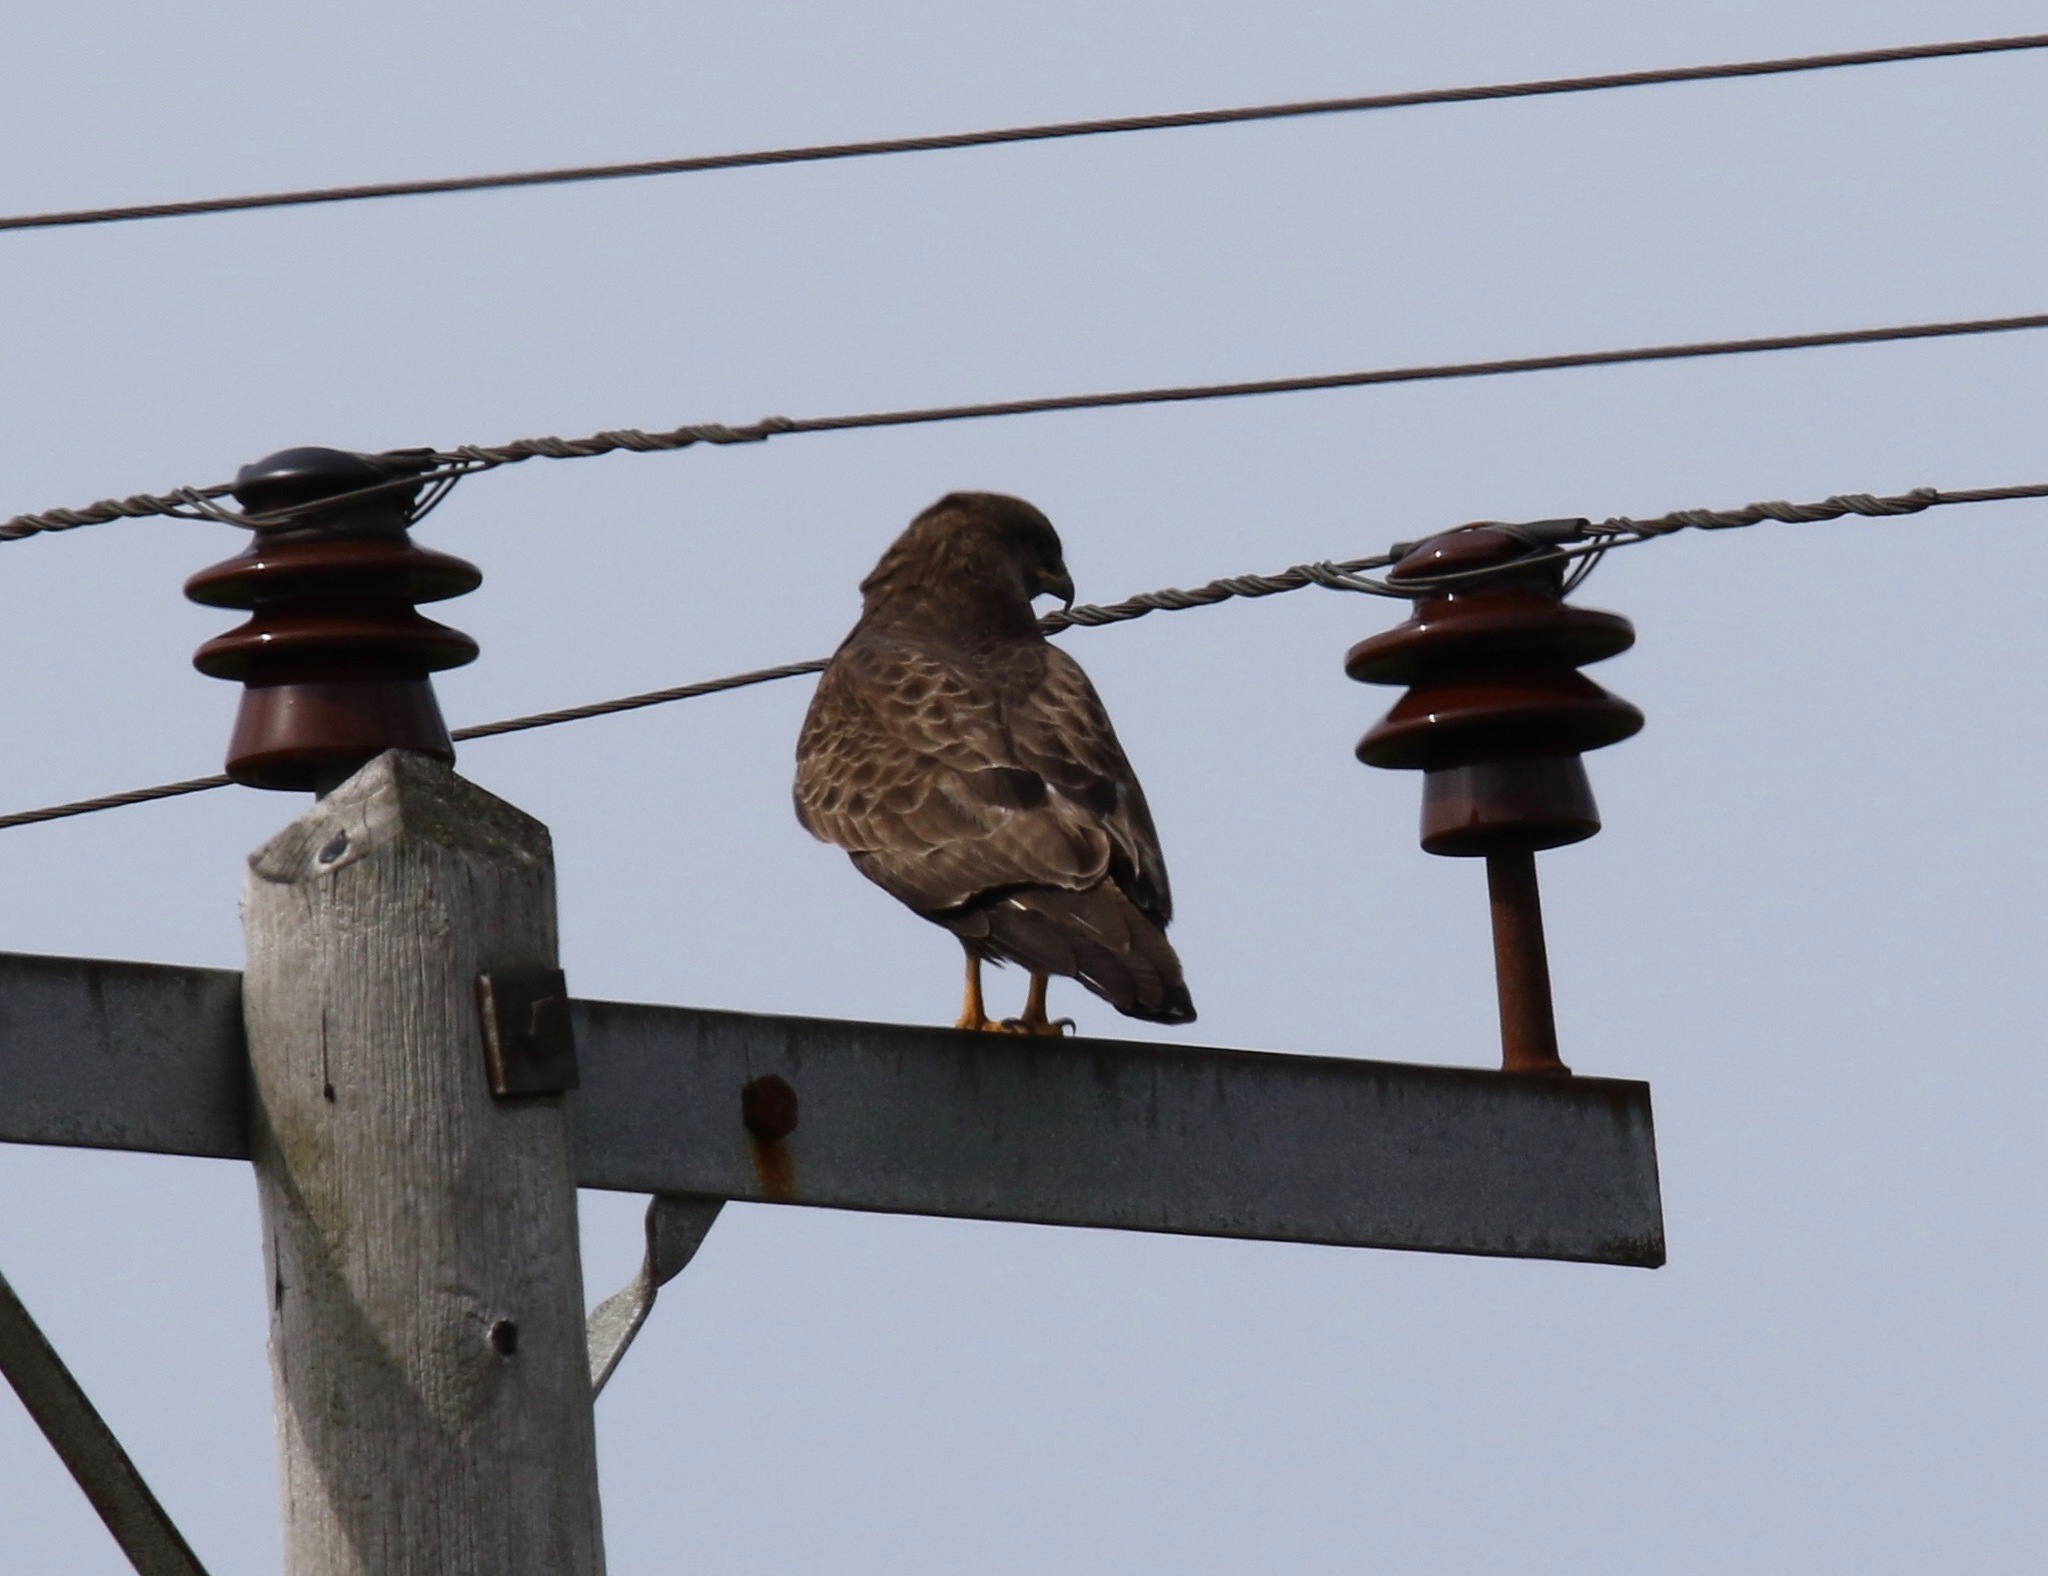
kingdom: Animalia
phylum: Chordata
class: Aves
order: Accipitriformes
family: Accipitridae
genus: Buteo
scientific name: Buteo buteo
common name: Common buzzard
